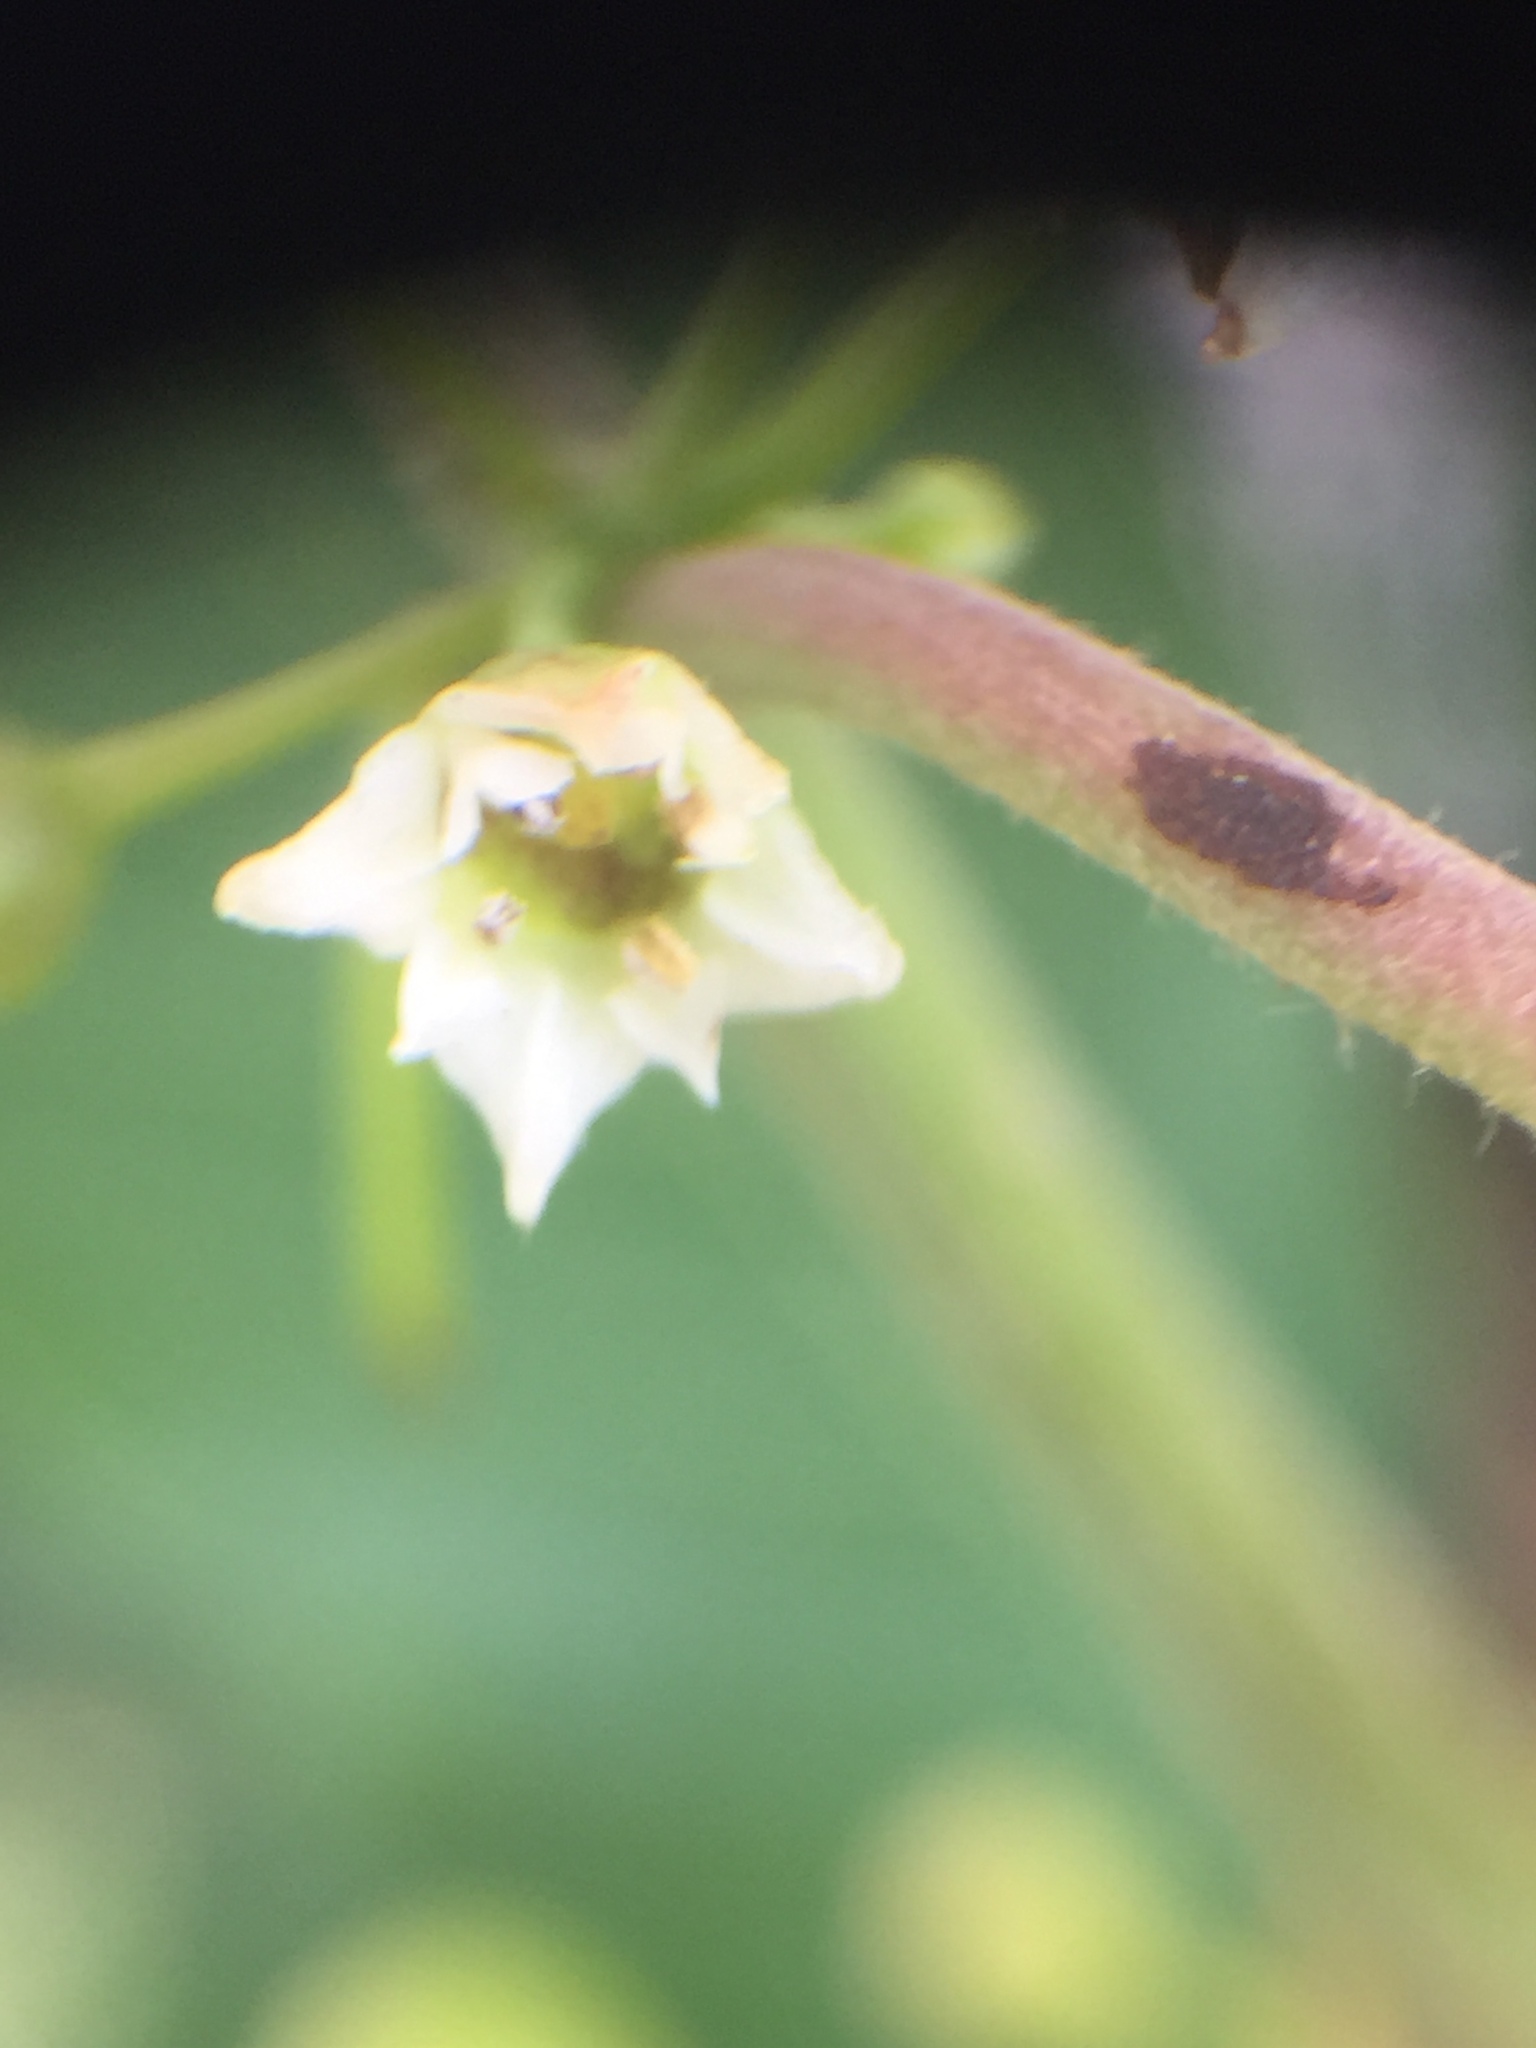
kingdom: Plantae
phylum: Tracheophyta
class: Magnoliopsida
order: Rosales
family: Rhamnaceae
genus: Frangula
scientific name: Frangula alnus
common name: Alder buckthorn
